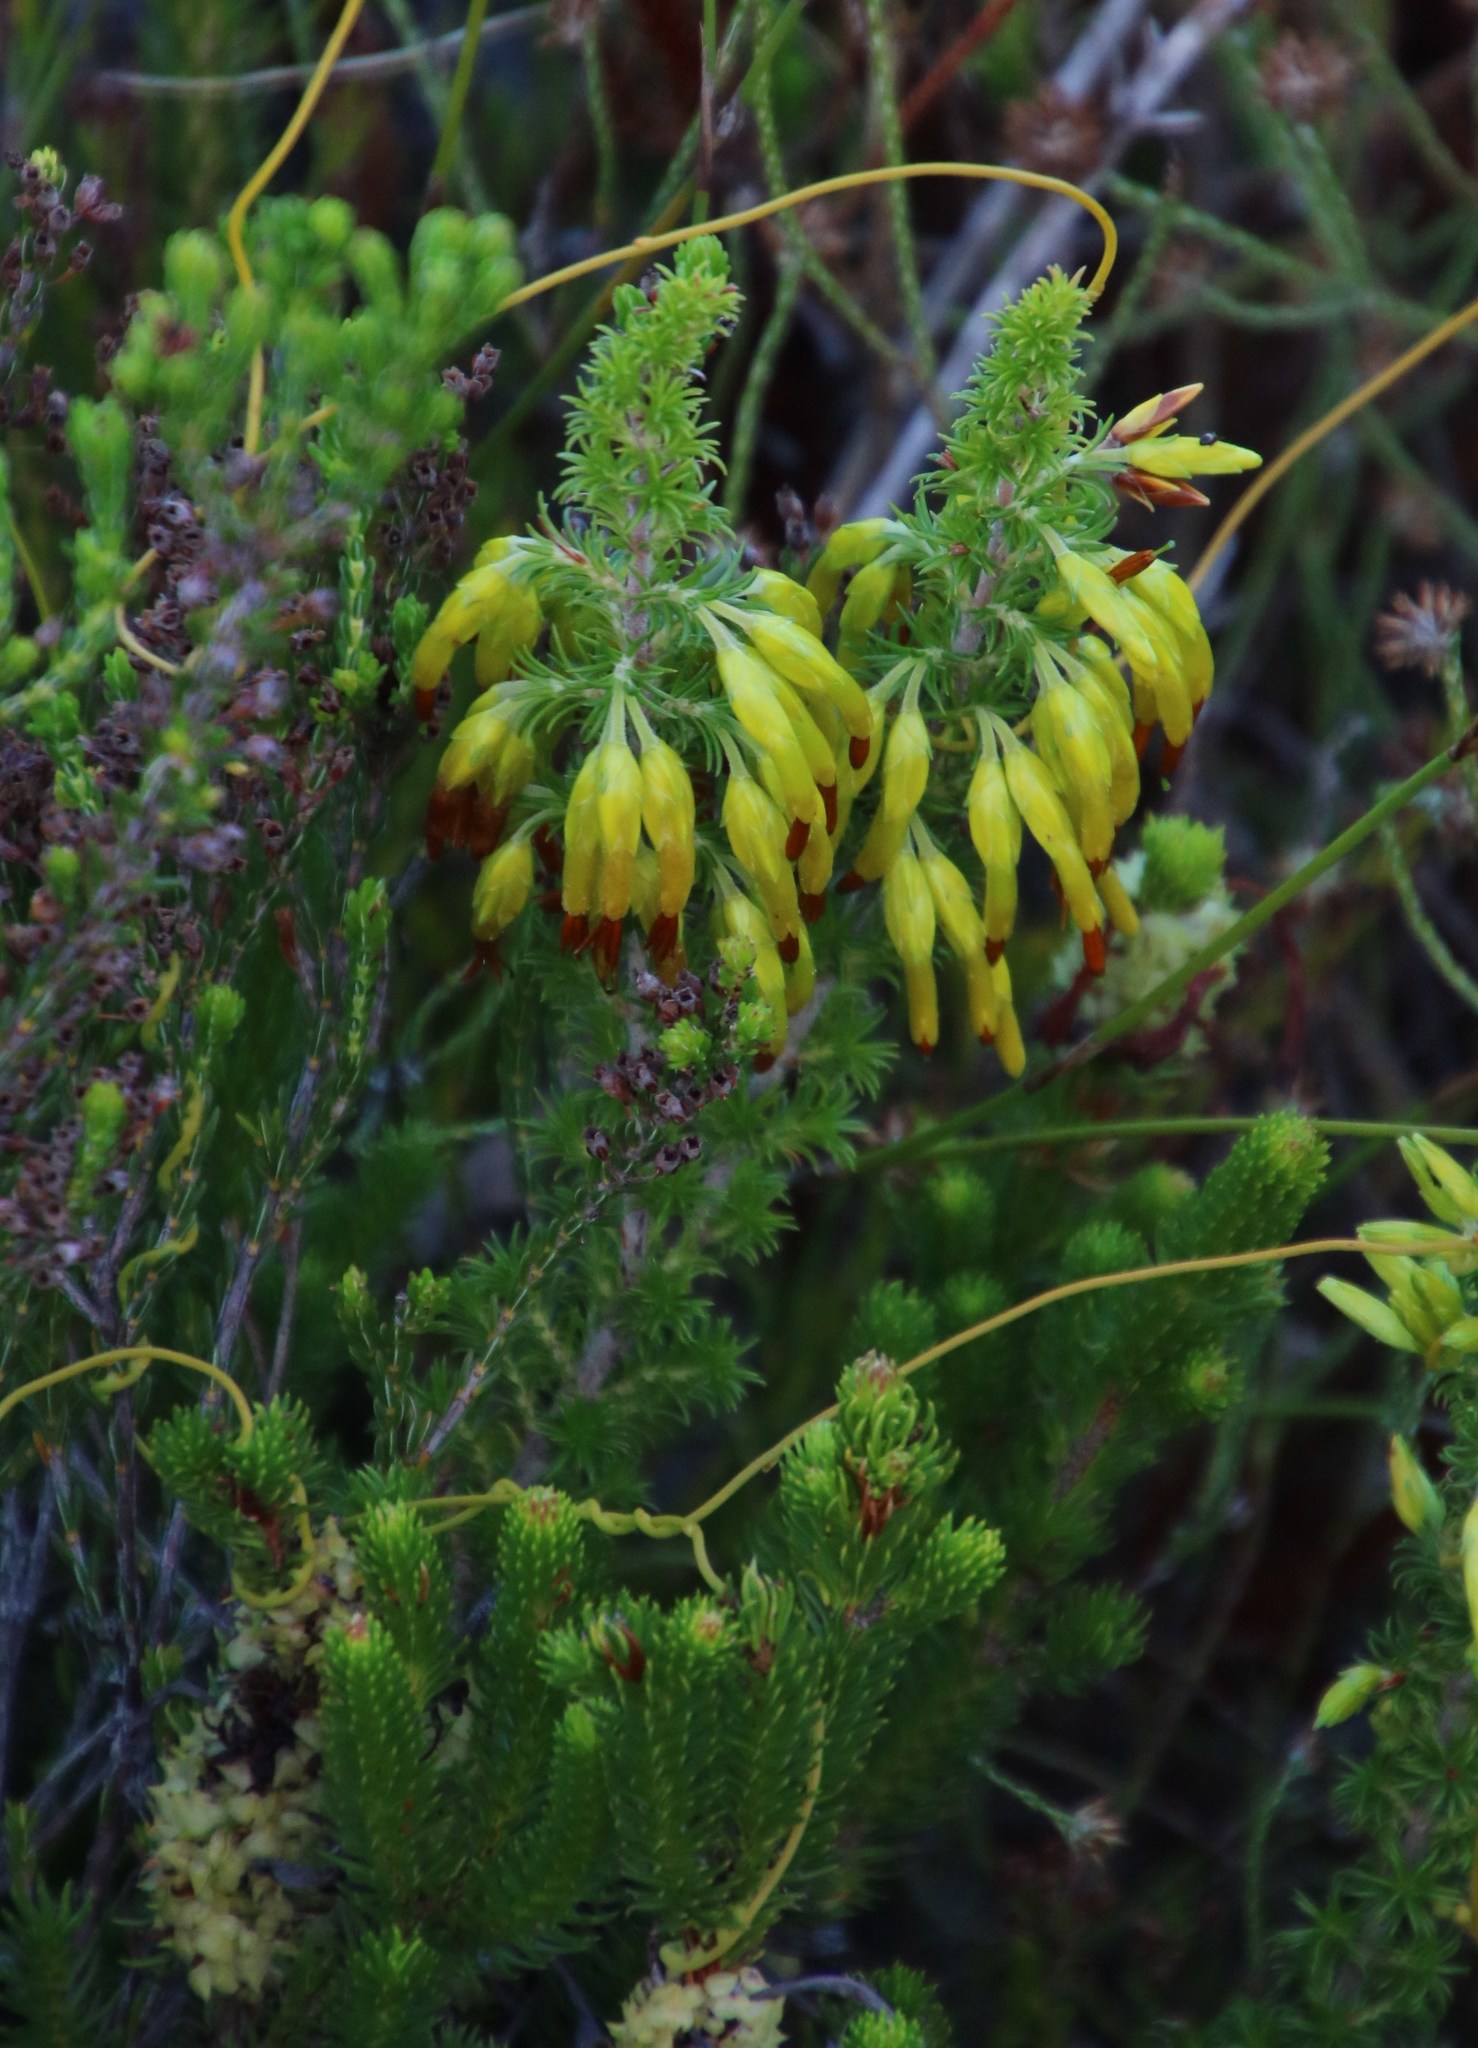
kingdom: Plantae
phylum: Tracheophyta
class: Magnoliopsida
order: Ericales
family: Ericaceae
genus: Erica
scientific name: Erica coccinea
